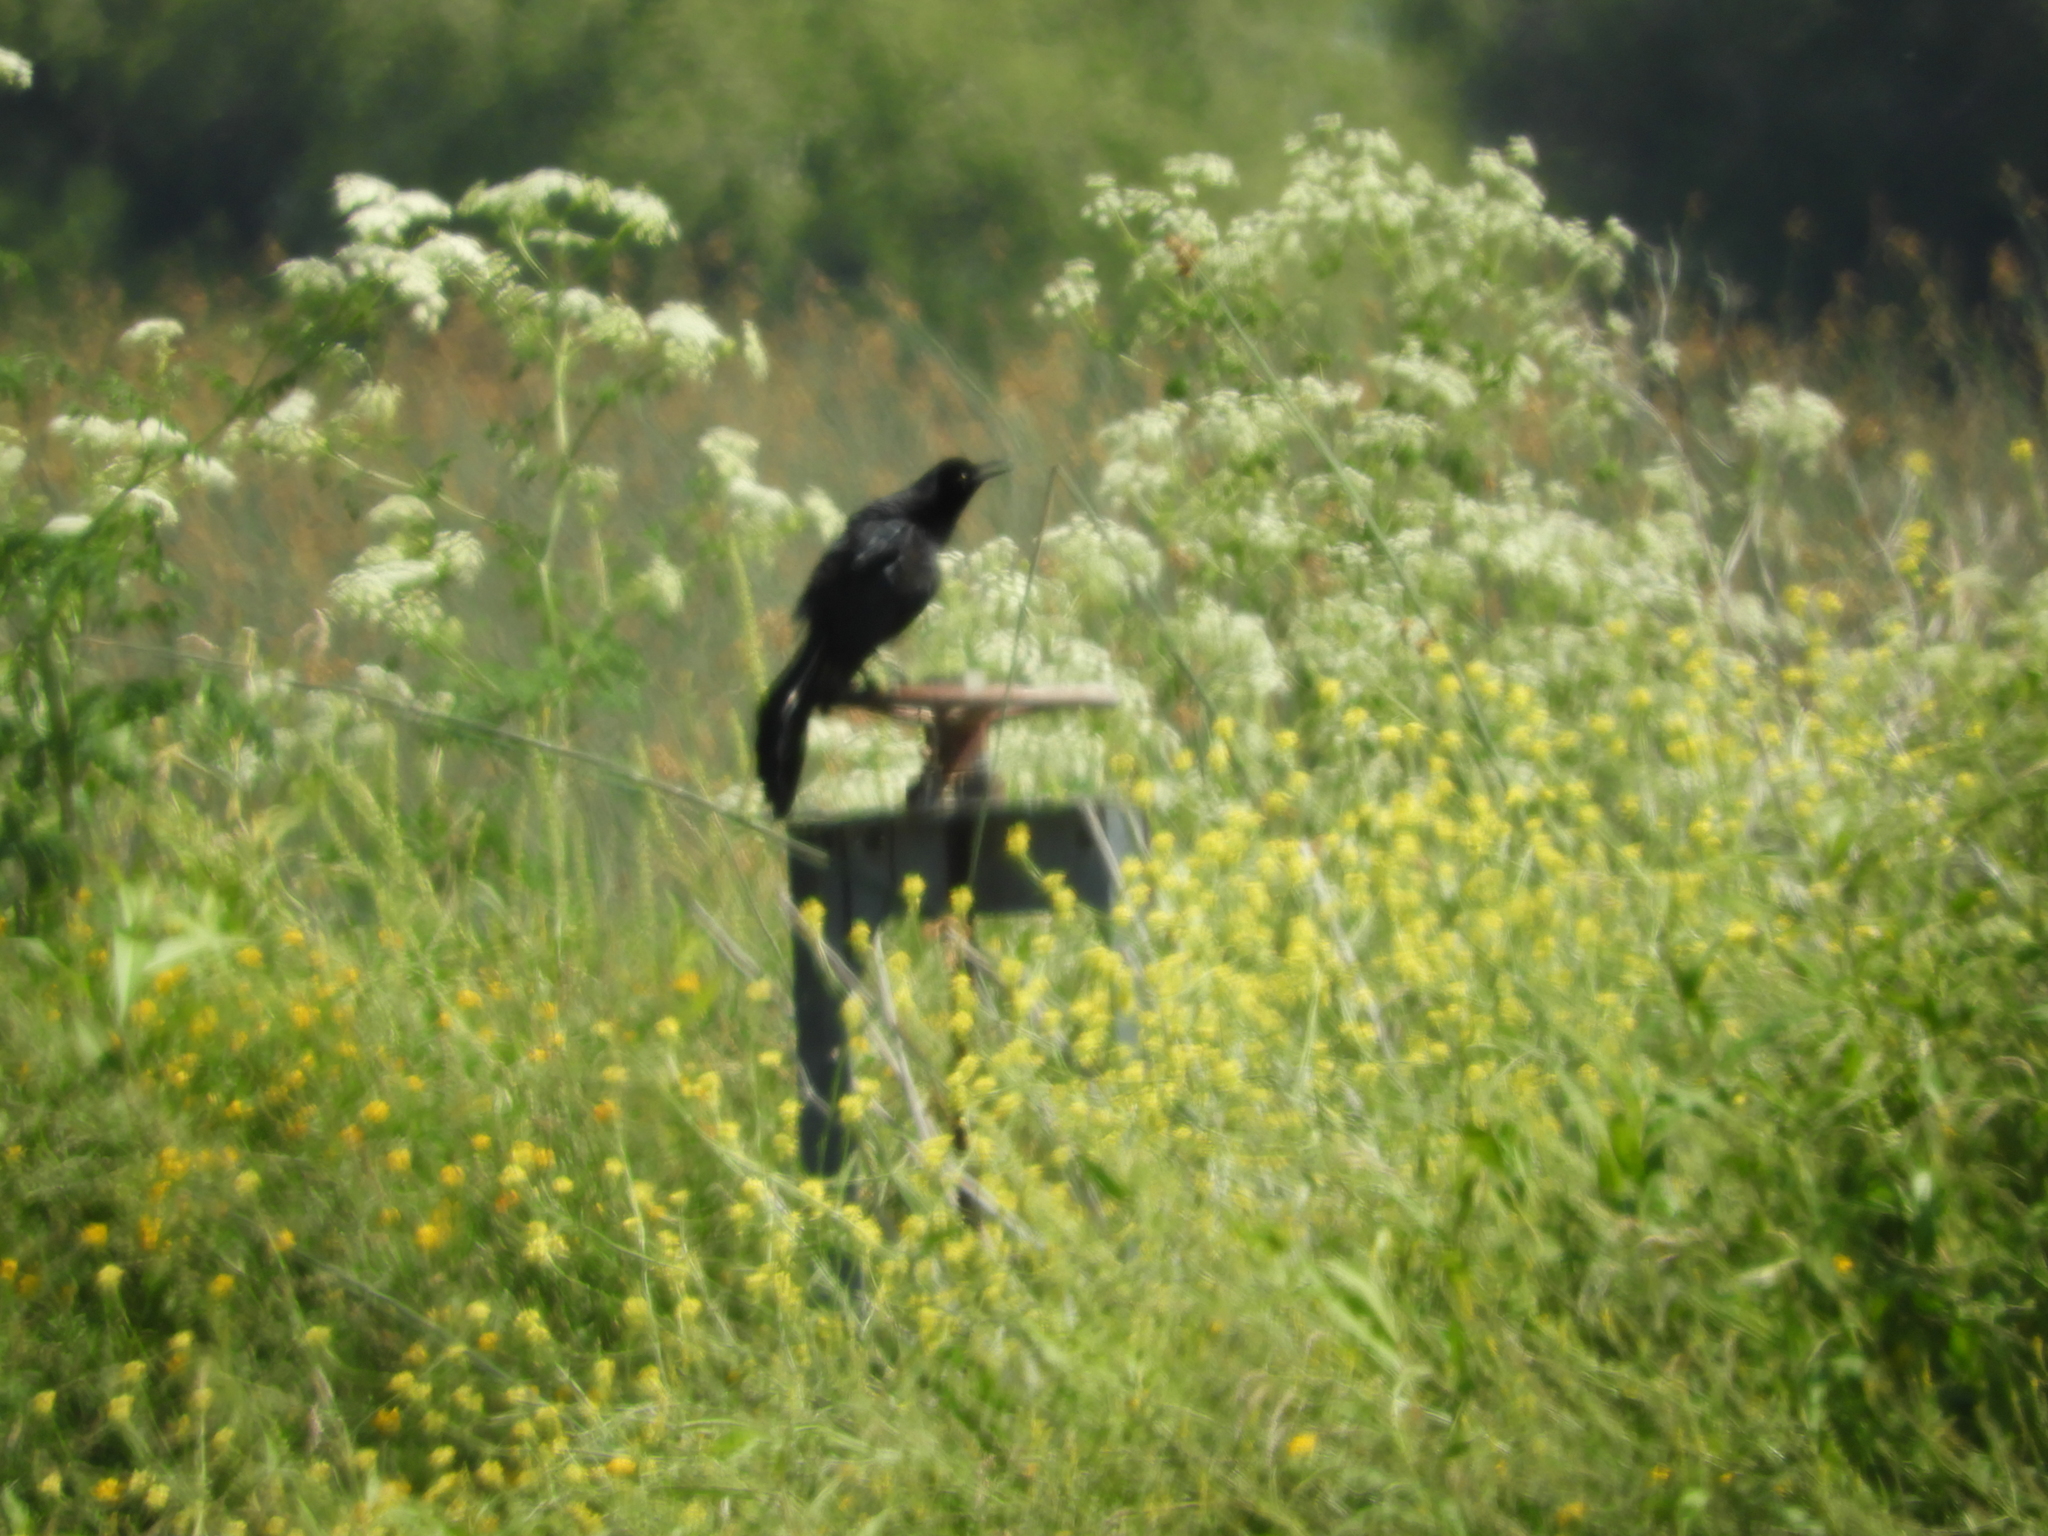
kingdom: Animalia
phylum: Chordata
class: Aves
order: Passeriformes
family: Icteridae
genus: Quiscalus
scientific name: Quiscalus mexicanus
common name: Great-tailed grackle
